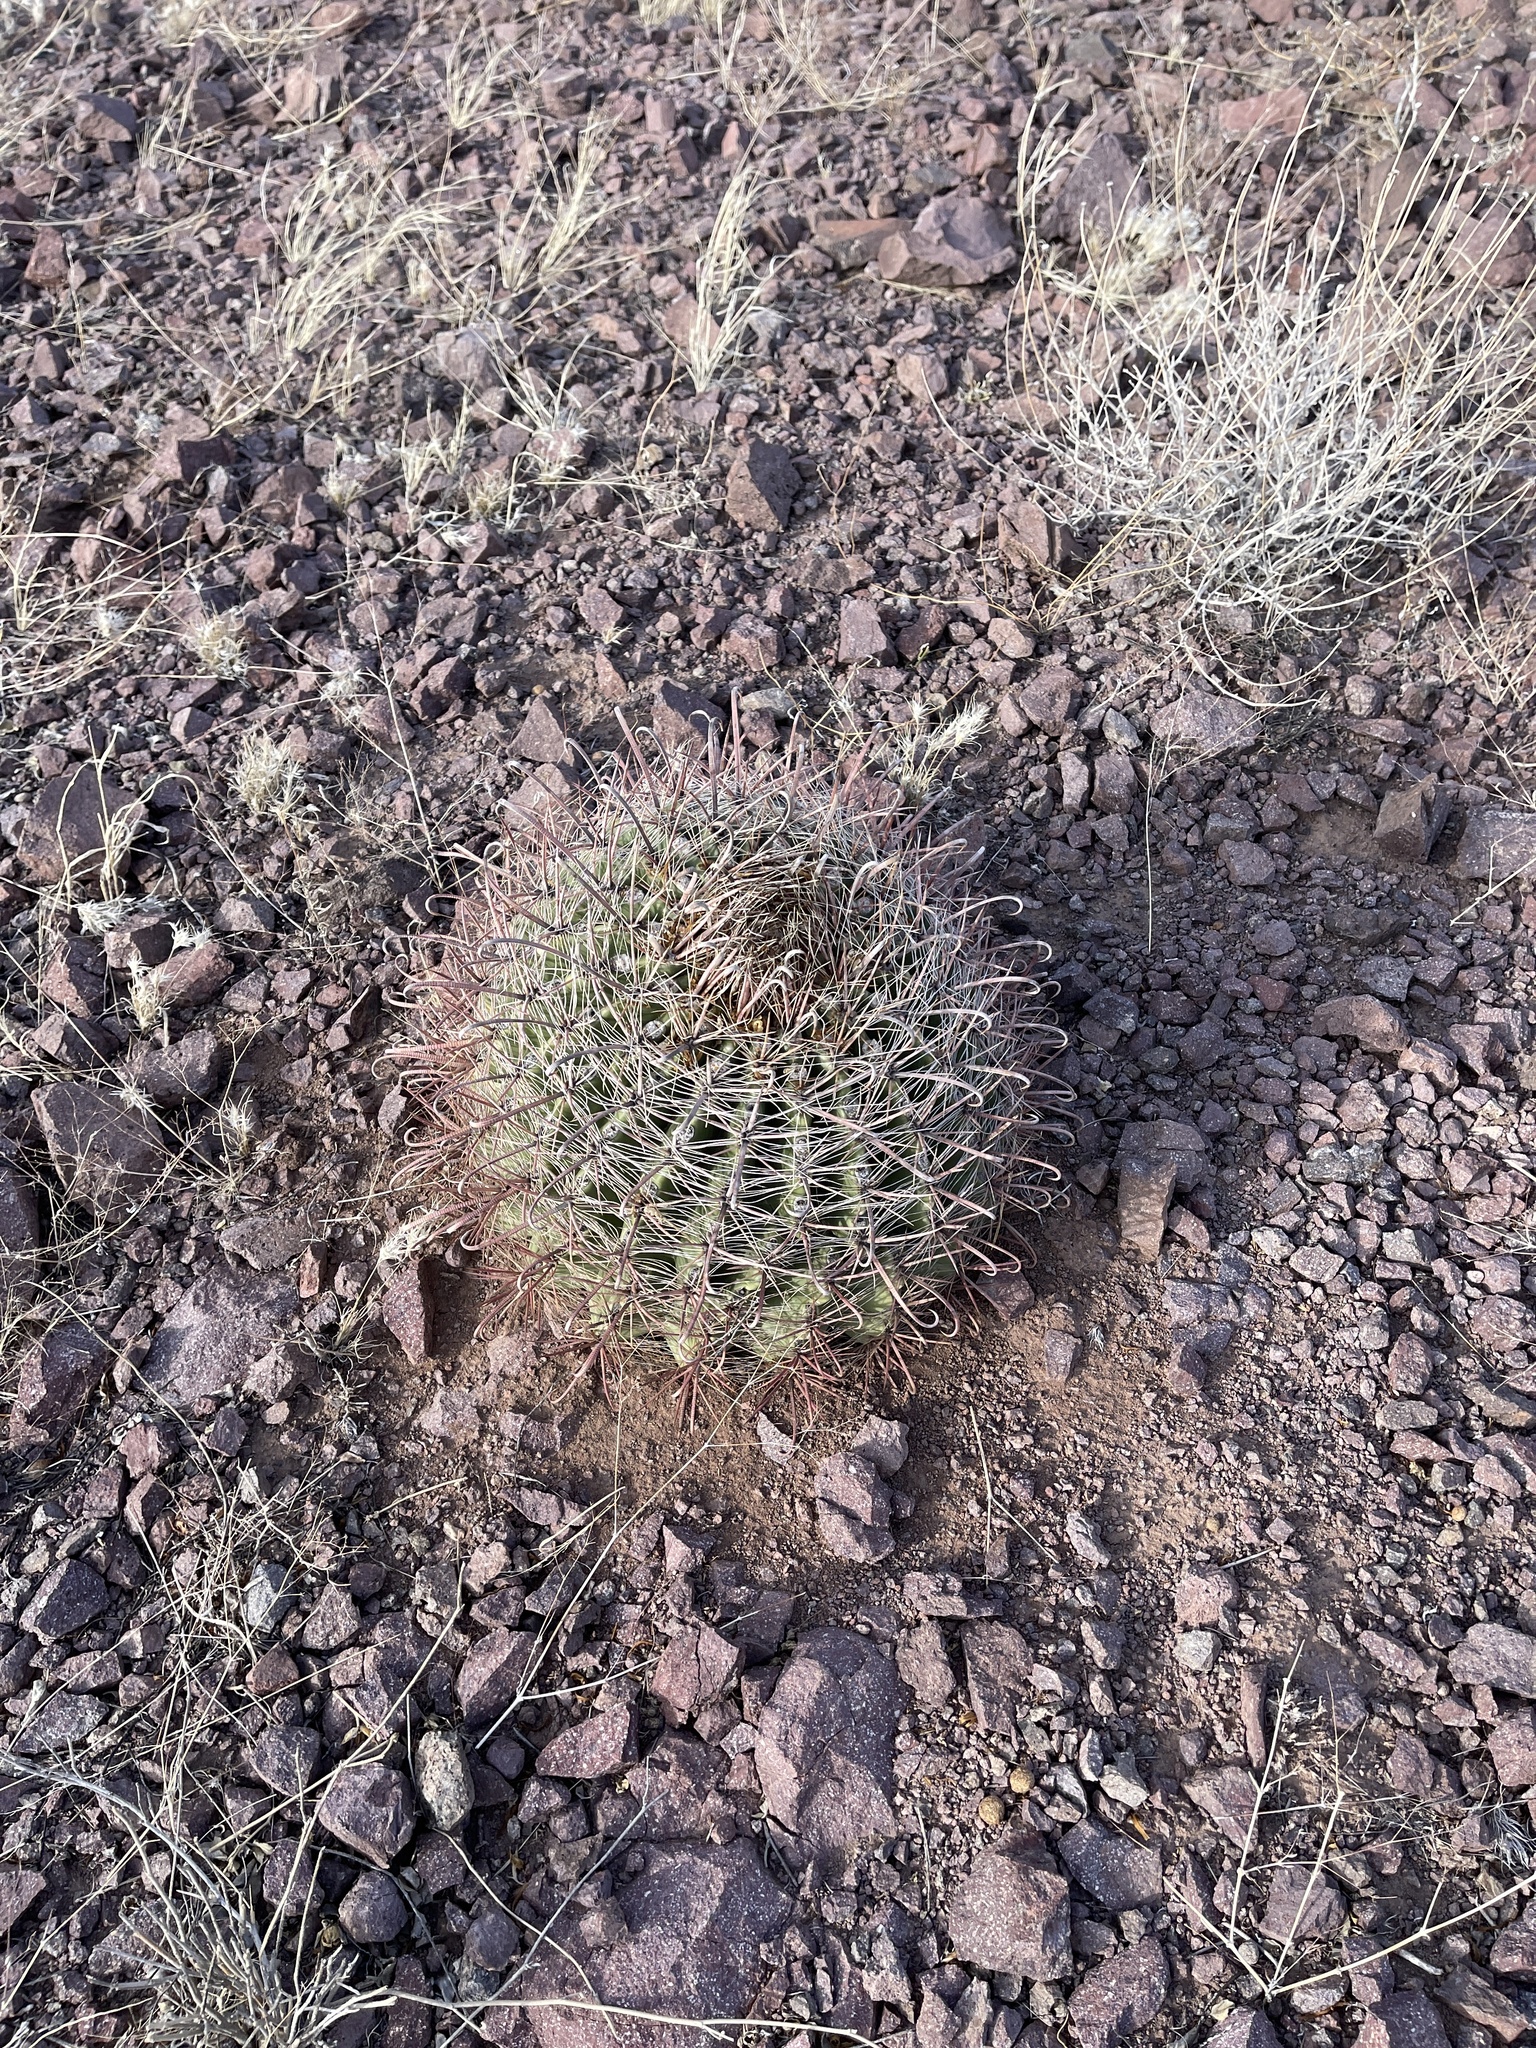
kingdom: Plantae
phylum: Tracheophyta
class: Magnoliopsida
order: Caryophyllales
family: Cactaceae
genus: Ferocactus
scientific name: Ferocactus wislizeni
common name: Candy barrel cactus
